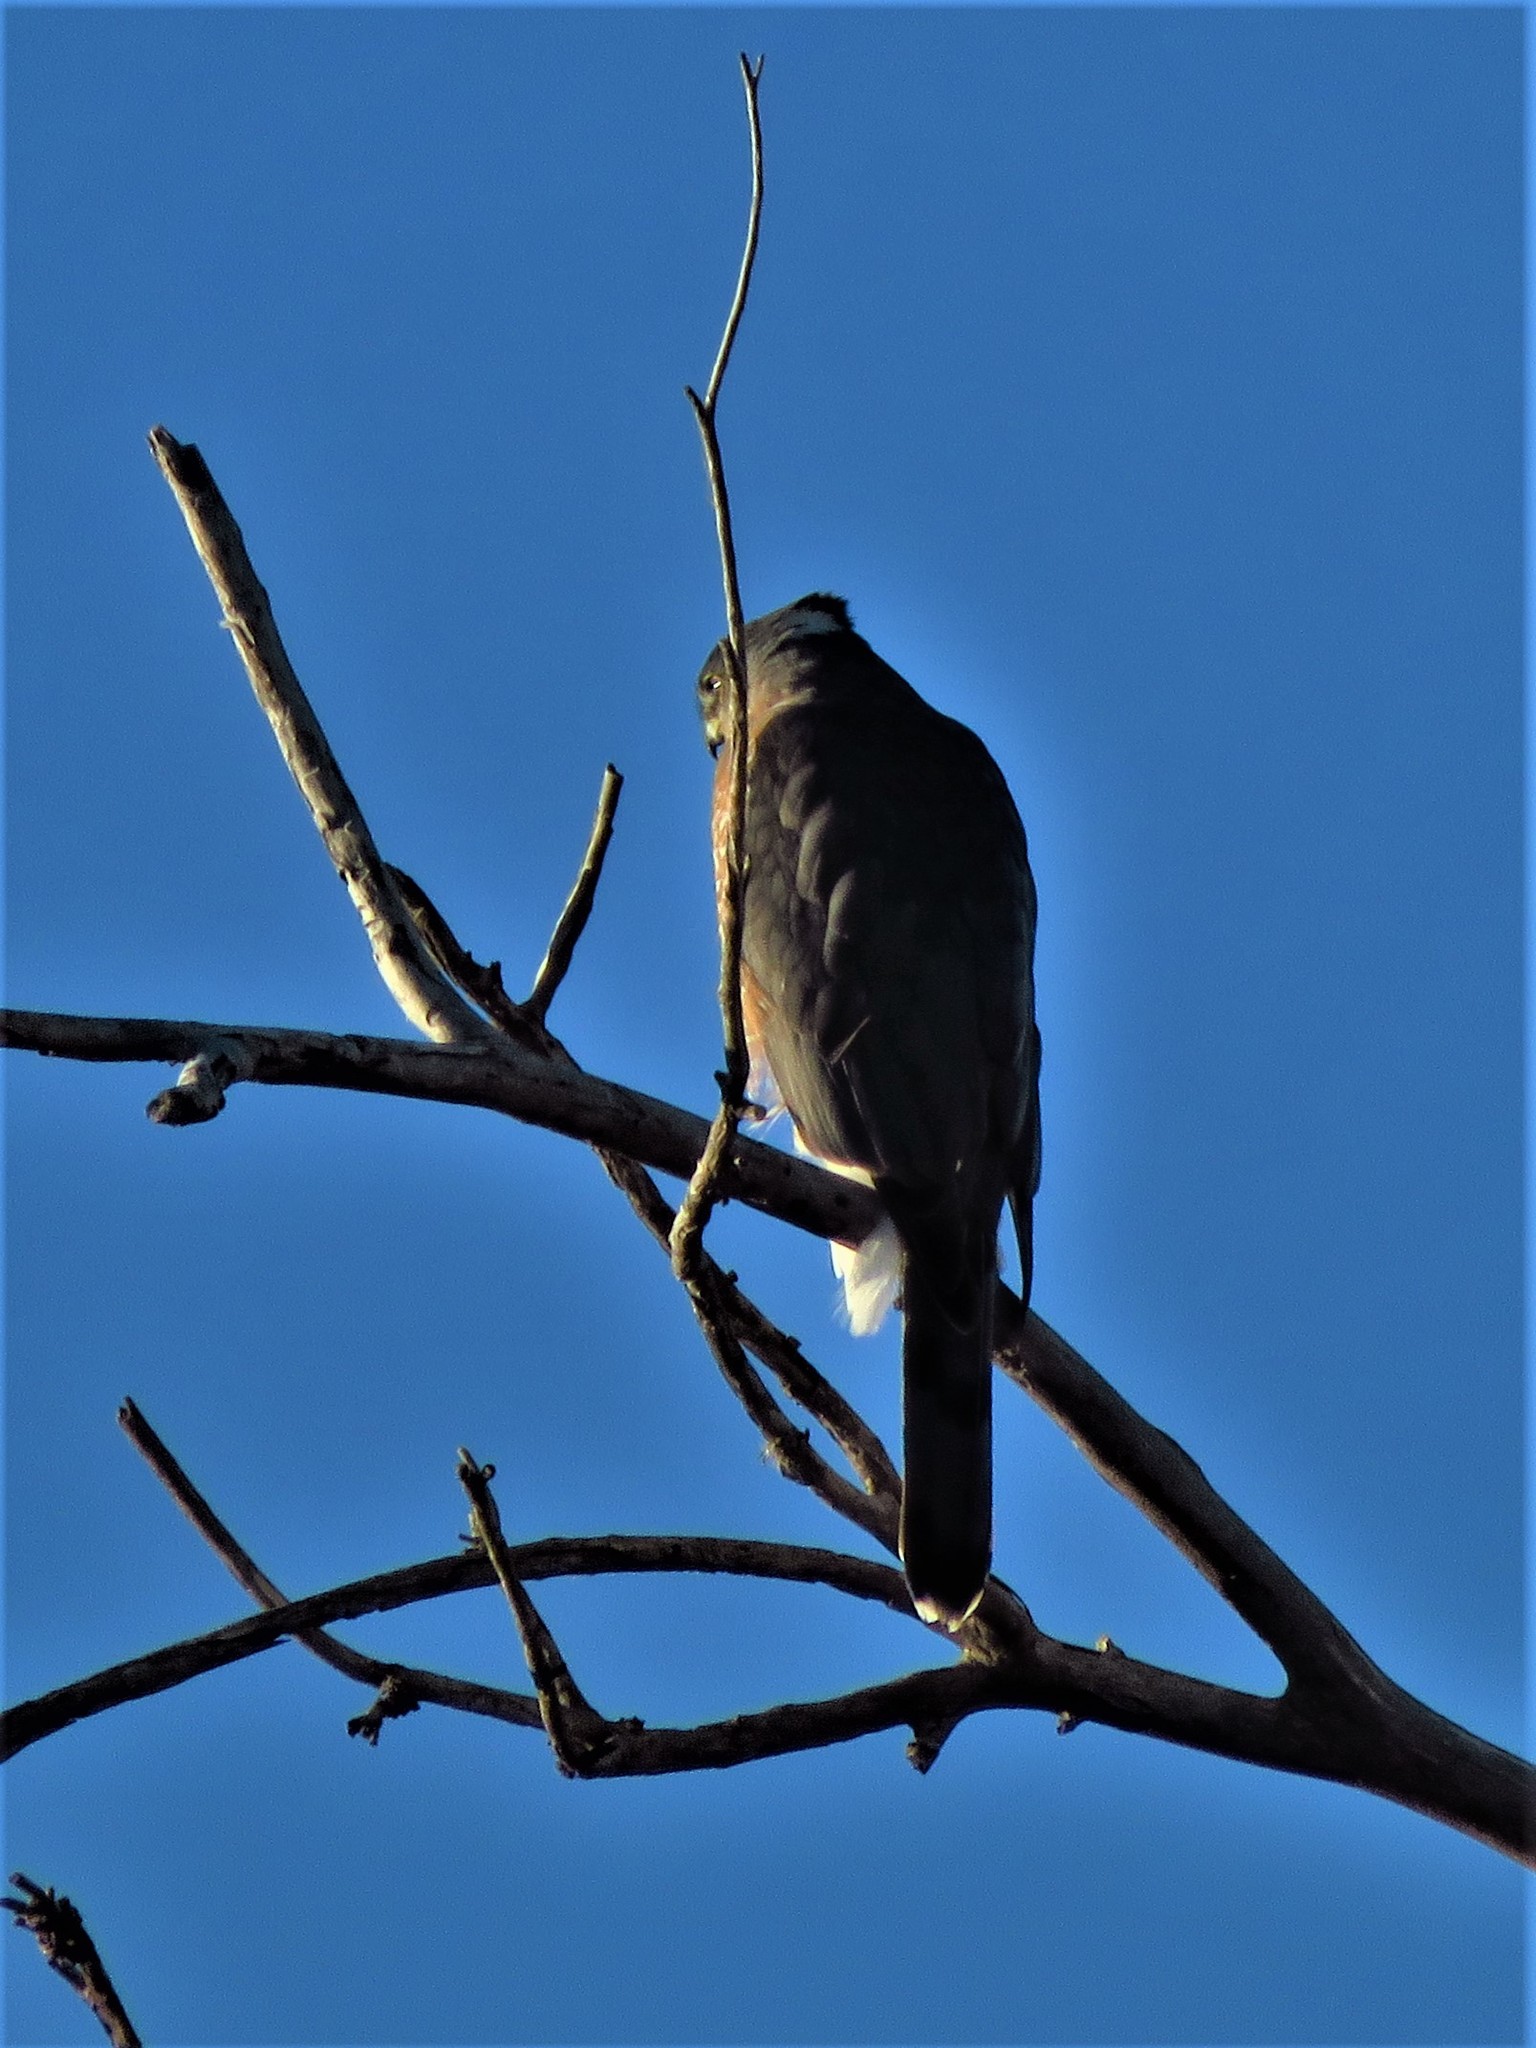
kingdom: Animalia
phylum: Chordata
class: Aves
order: Accipitriformes
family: Accipitridae
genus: Accipiter
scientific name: Accipiter cooperii
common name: Cooper's hawk
